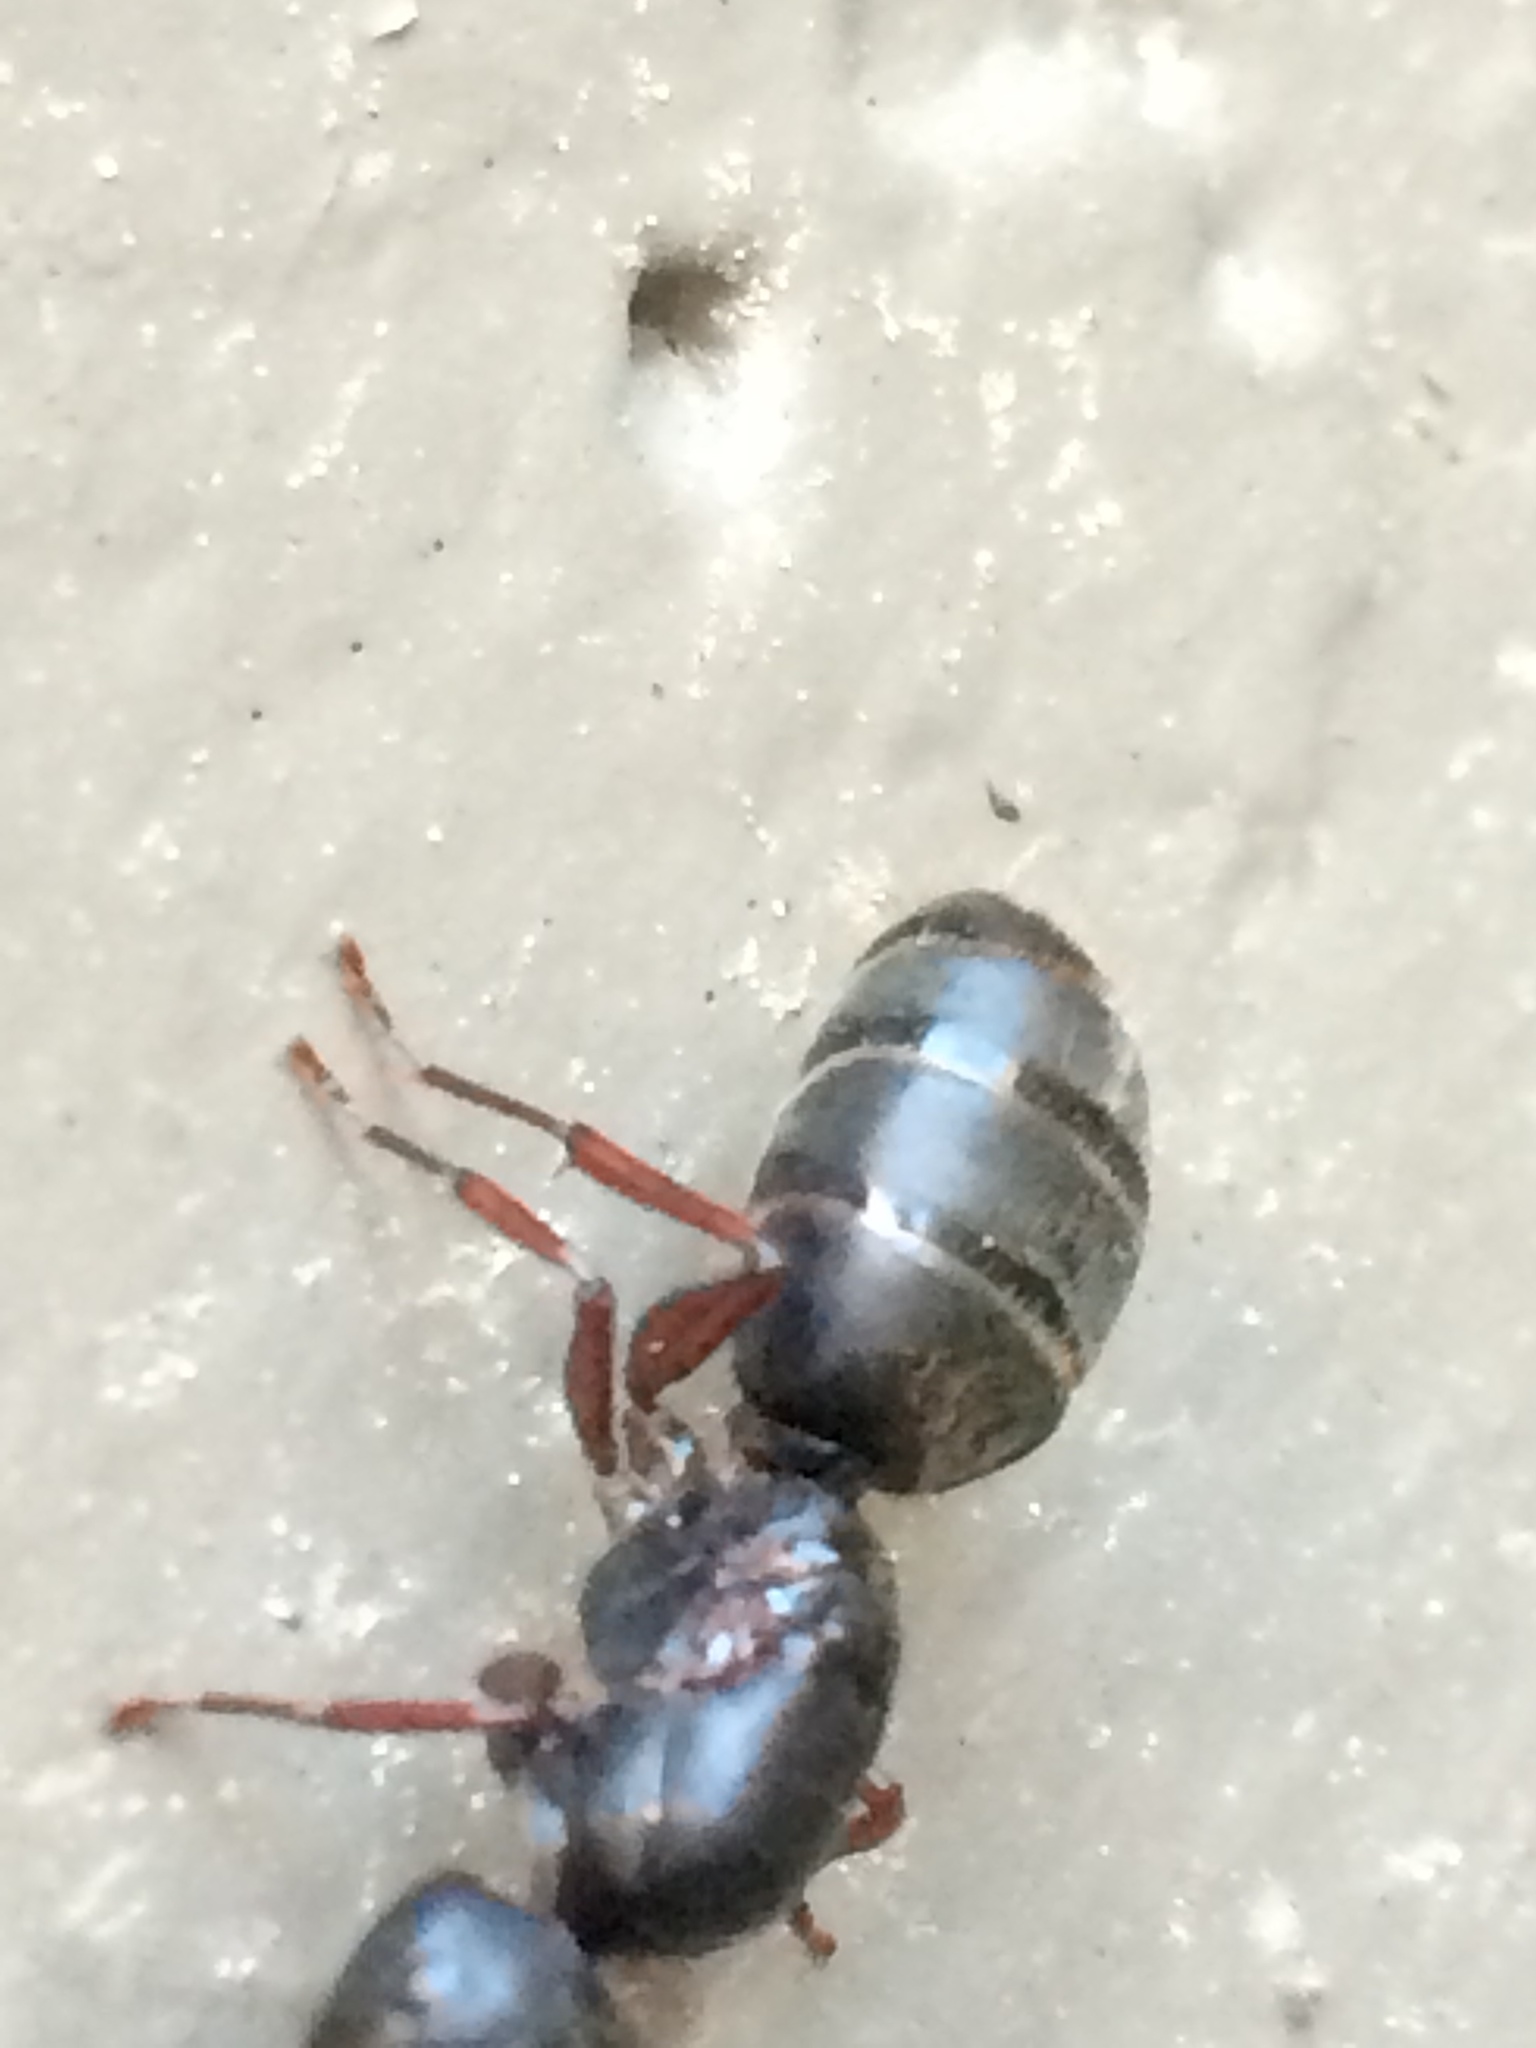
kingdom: Animalia
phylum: Arthropoda
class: Insecta
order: Hymenoptera
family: Formicidae
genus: Camponotus
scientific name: Camponotus modoc
